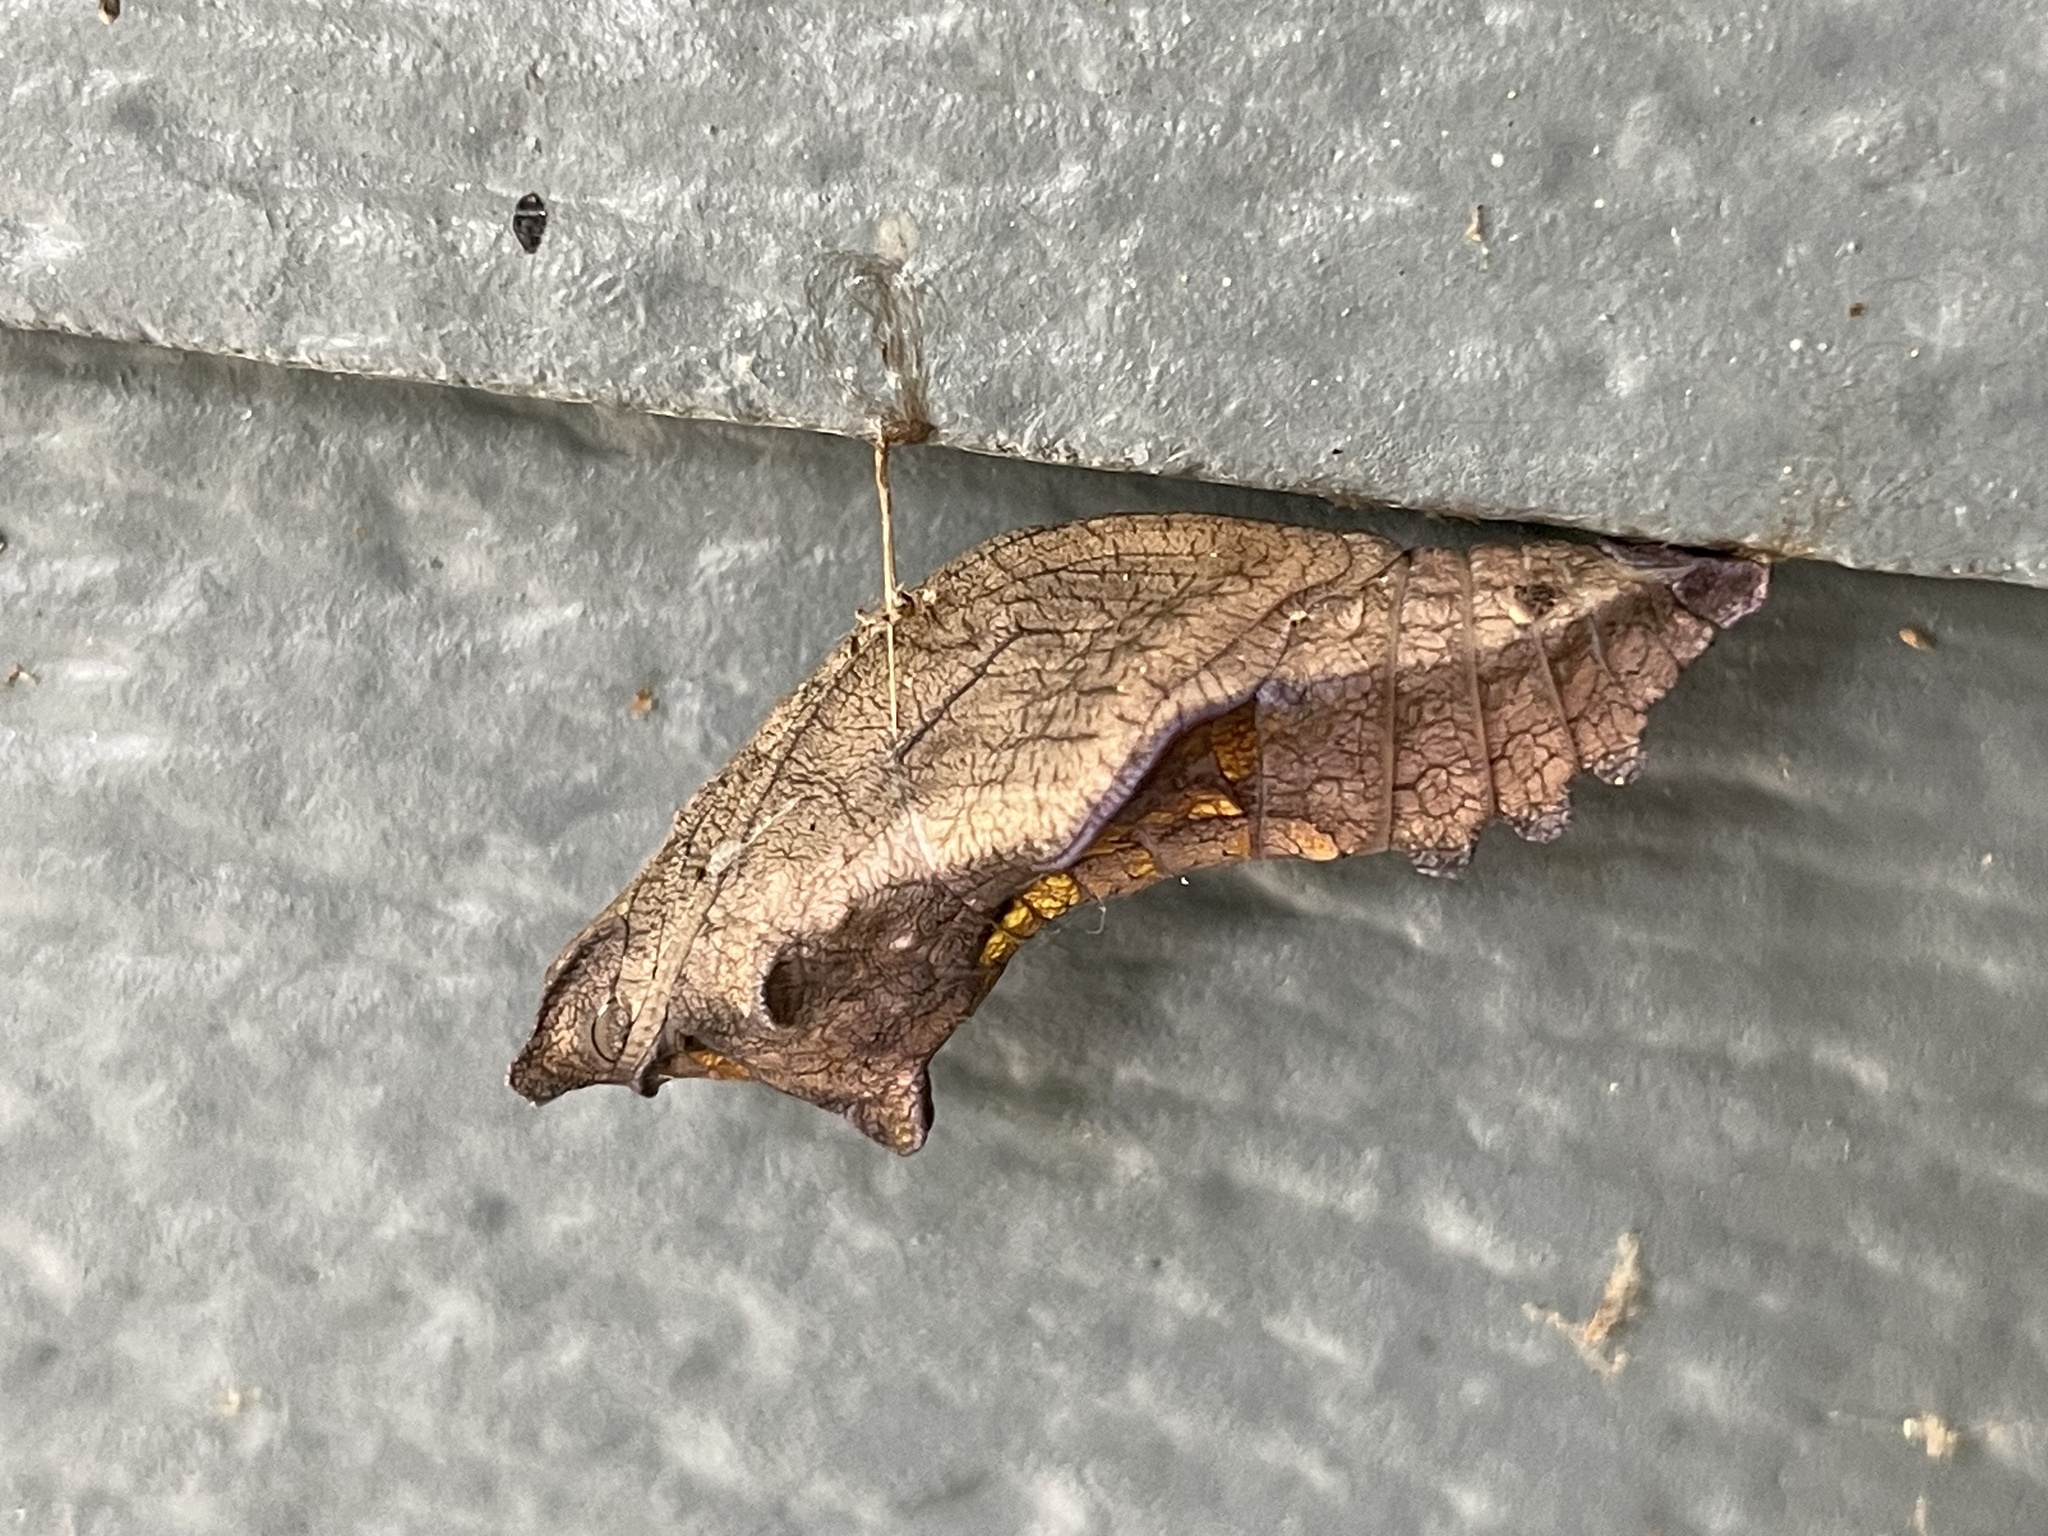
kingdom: Animalia
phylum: Arthropoda
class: Insecta
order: Lepidoptera
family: Papilionidae
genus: Battus
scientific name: Battus philenor
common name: Pipevine swallowtail
